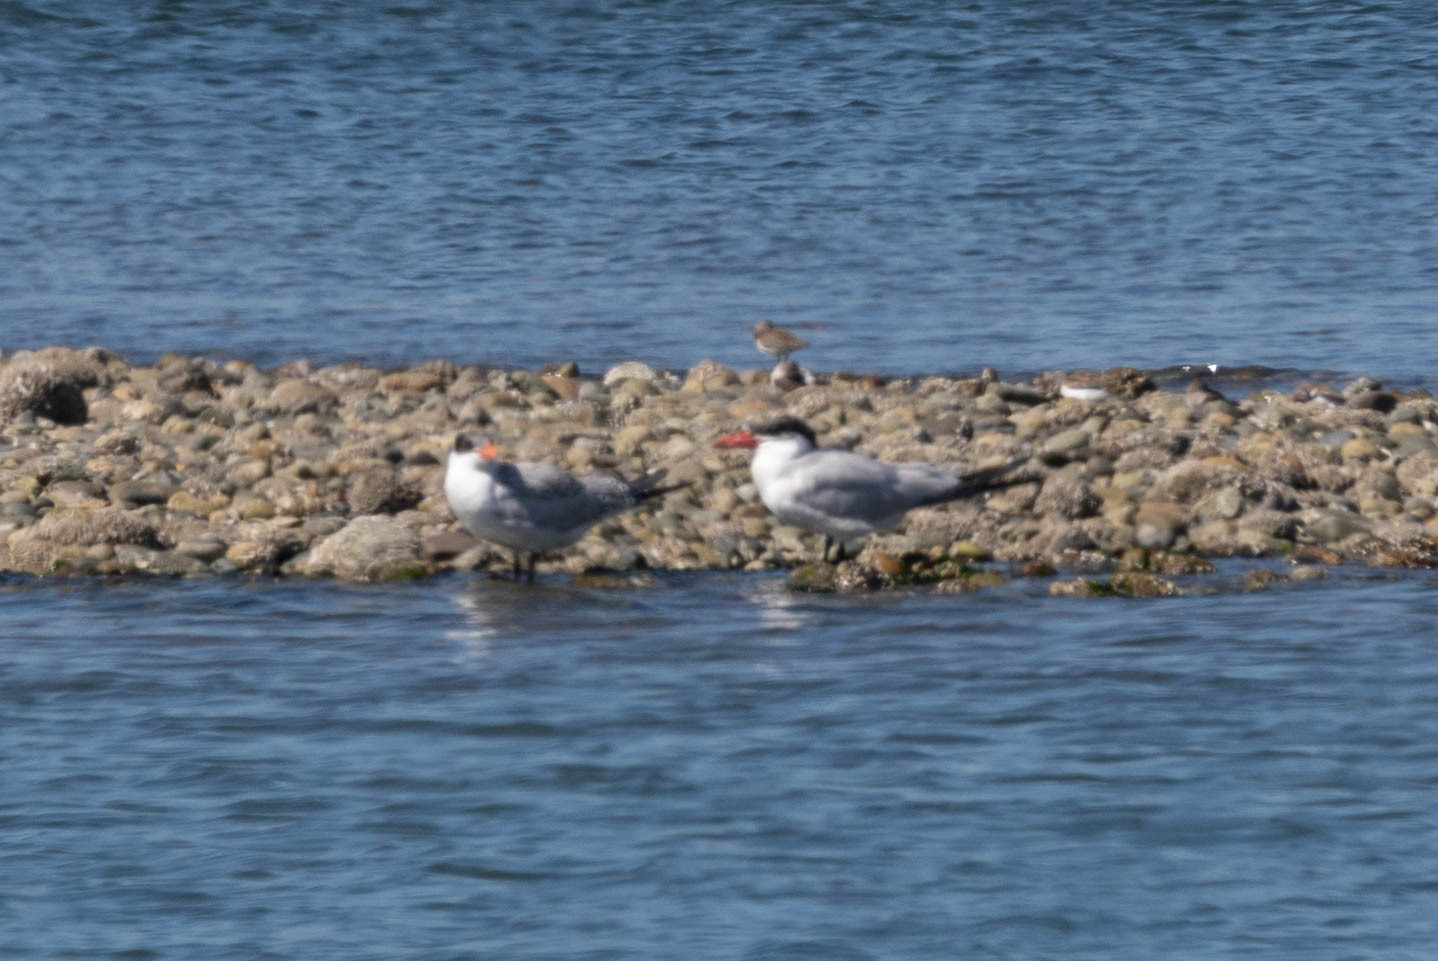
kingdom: Animalia
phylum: Chordata
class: Aves
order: Charadriiformes
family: Laridae
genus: Hydroprogne
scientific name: Hydroprogne caspia
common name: Caspian tern
